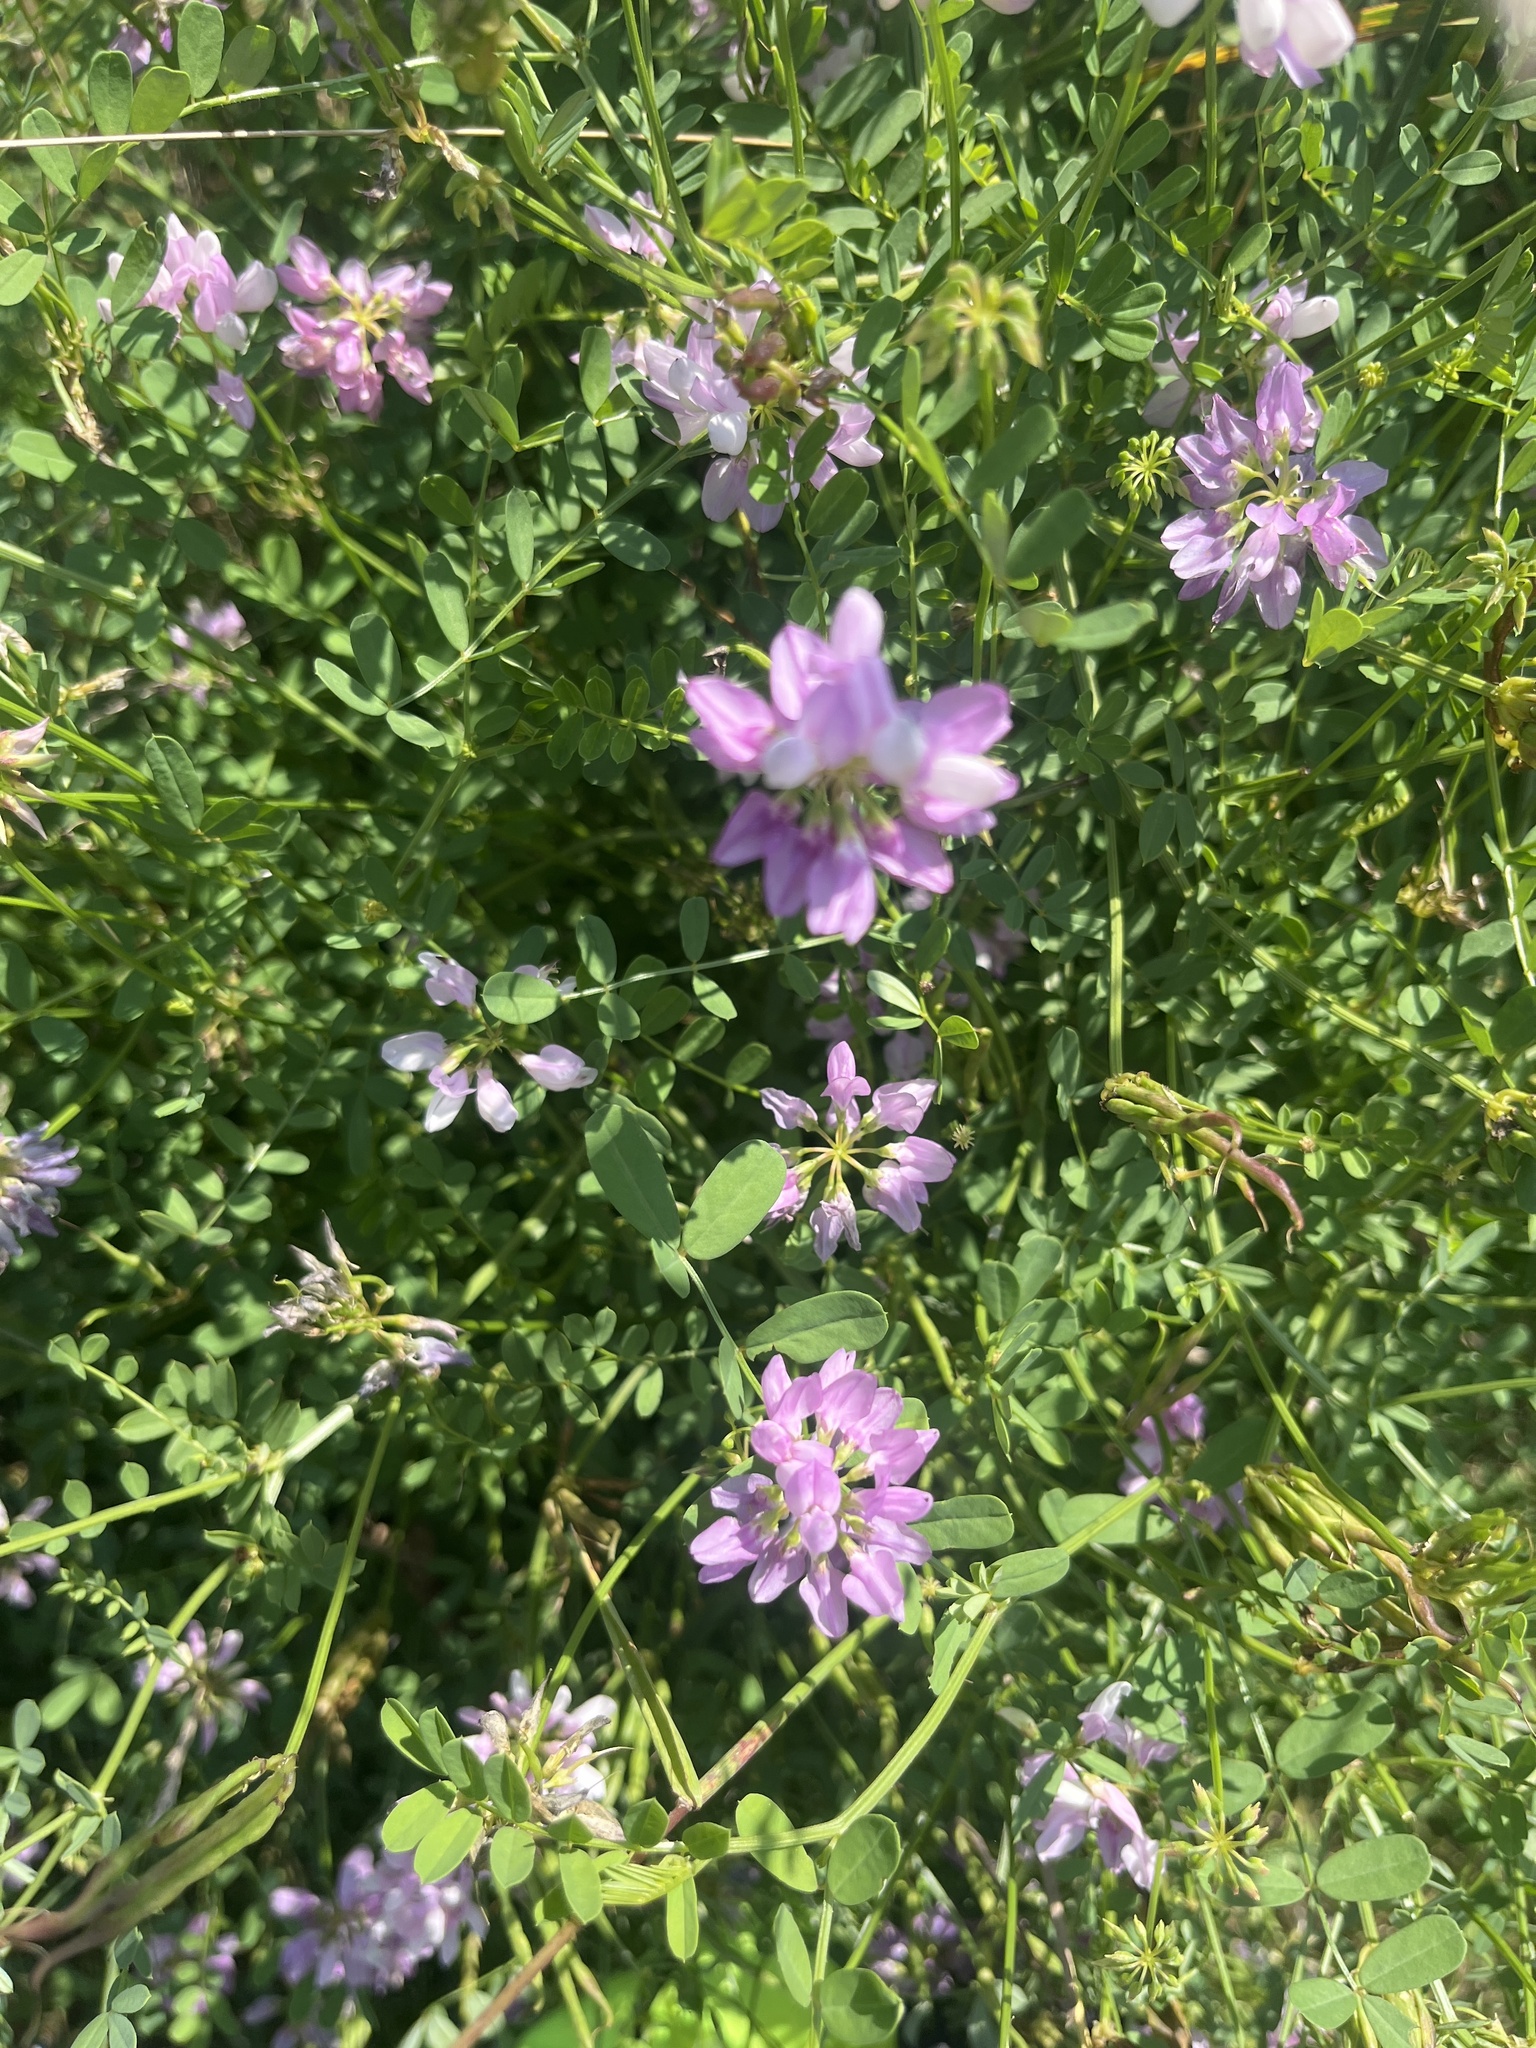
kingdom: Plantae
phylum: Tracheophyta
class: Magnoliopsida
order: Fabales
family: Fabaceae
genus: Coronilla
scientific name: Coronilla varia
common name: Crownvetch
